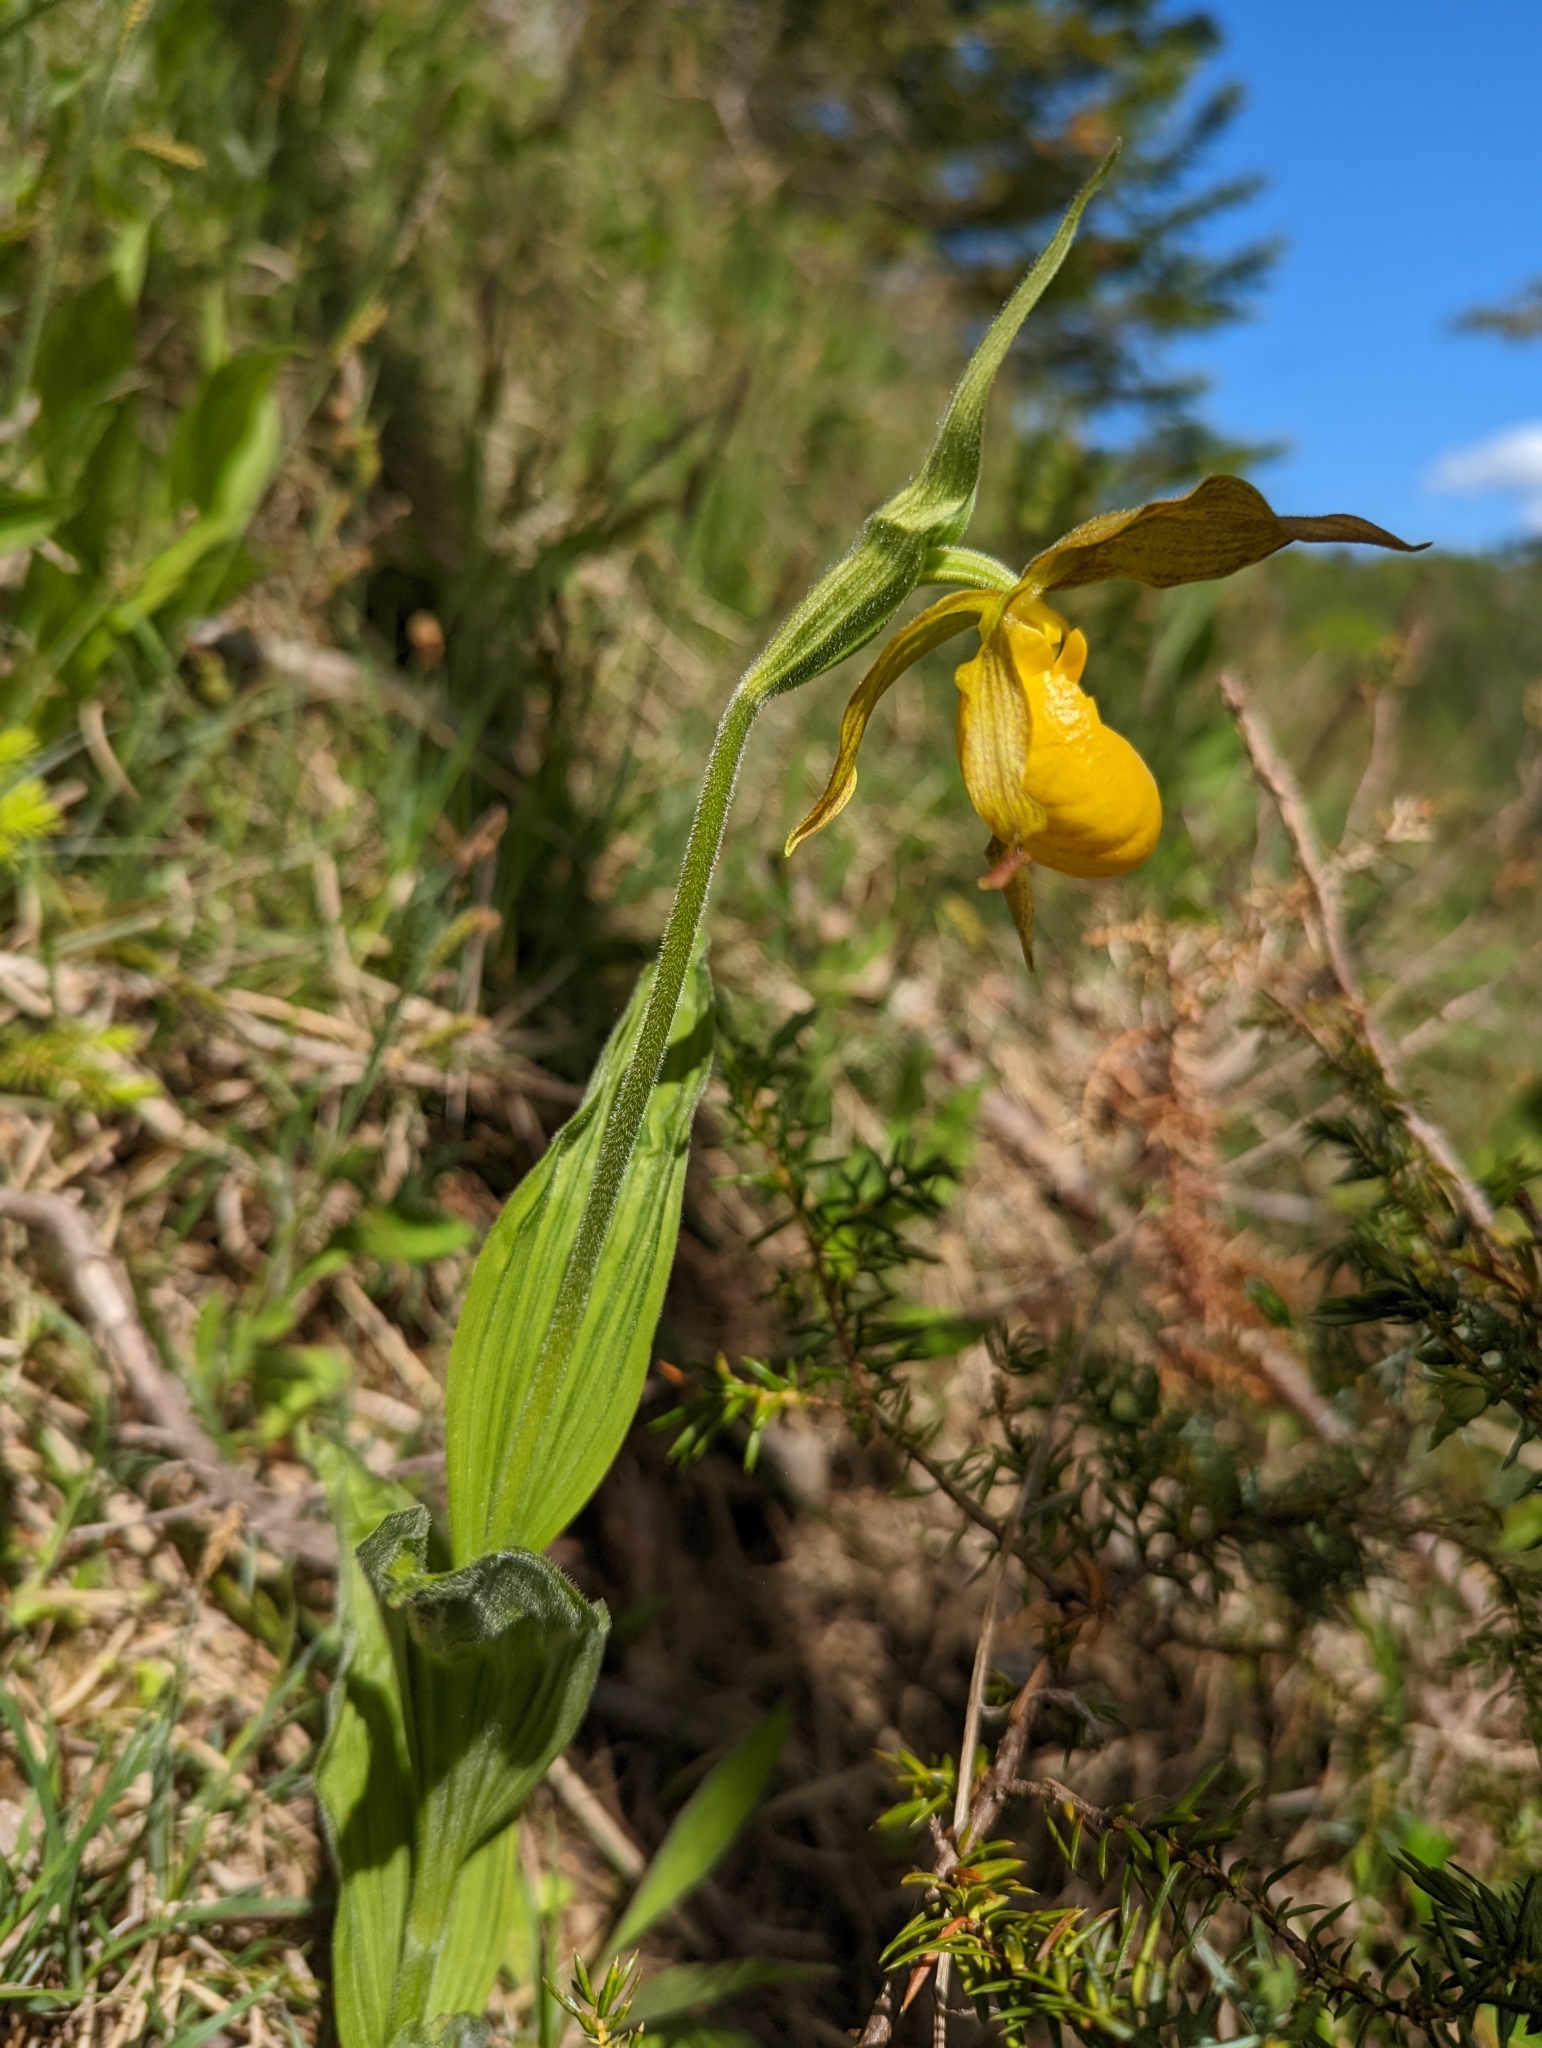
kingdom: Plantae
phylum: Tracheophyta
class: Liliopsida
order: Asparagales
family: Orchidaceae
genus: Cypripedium
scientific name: Cypripedium parviflorum
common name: American yellow lady's-slipper
